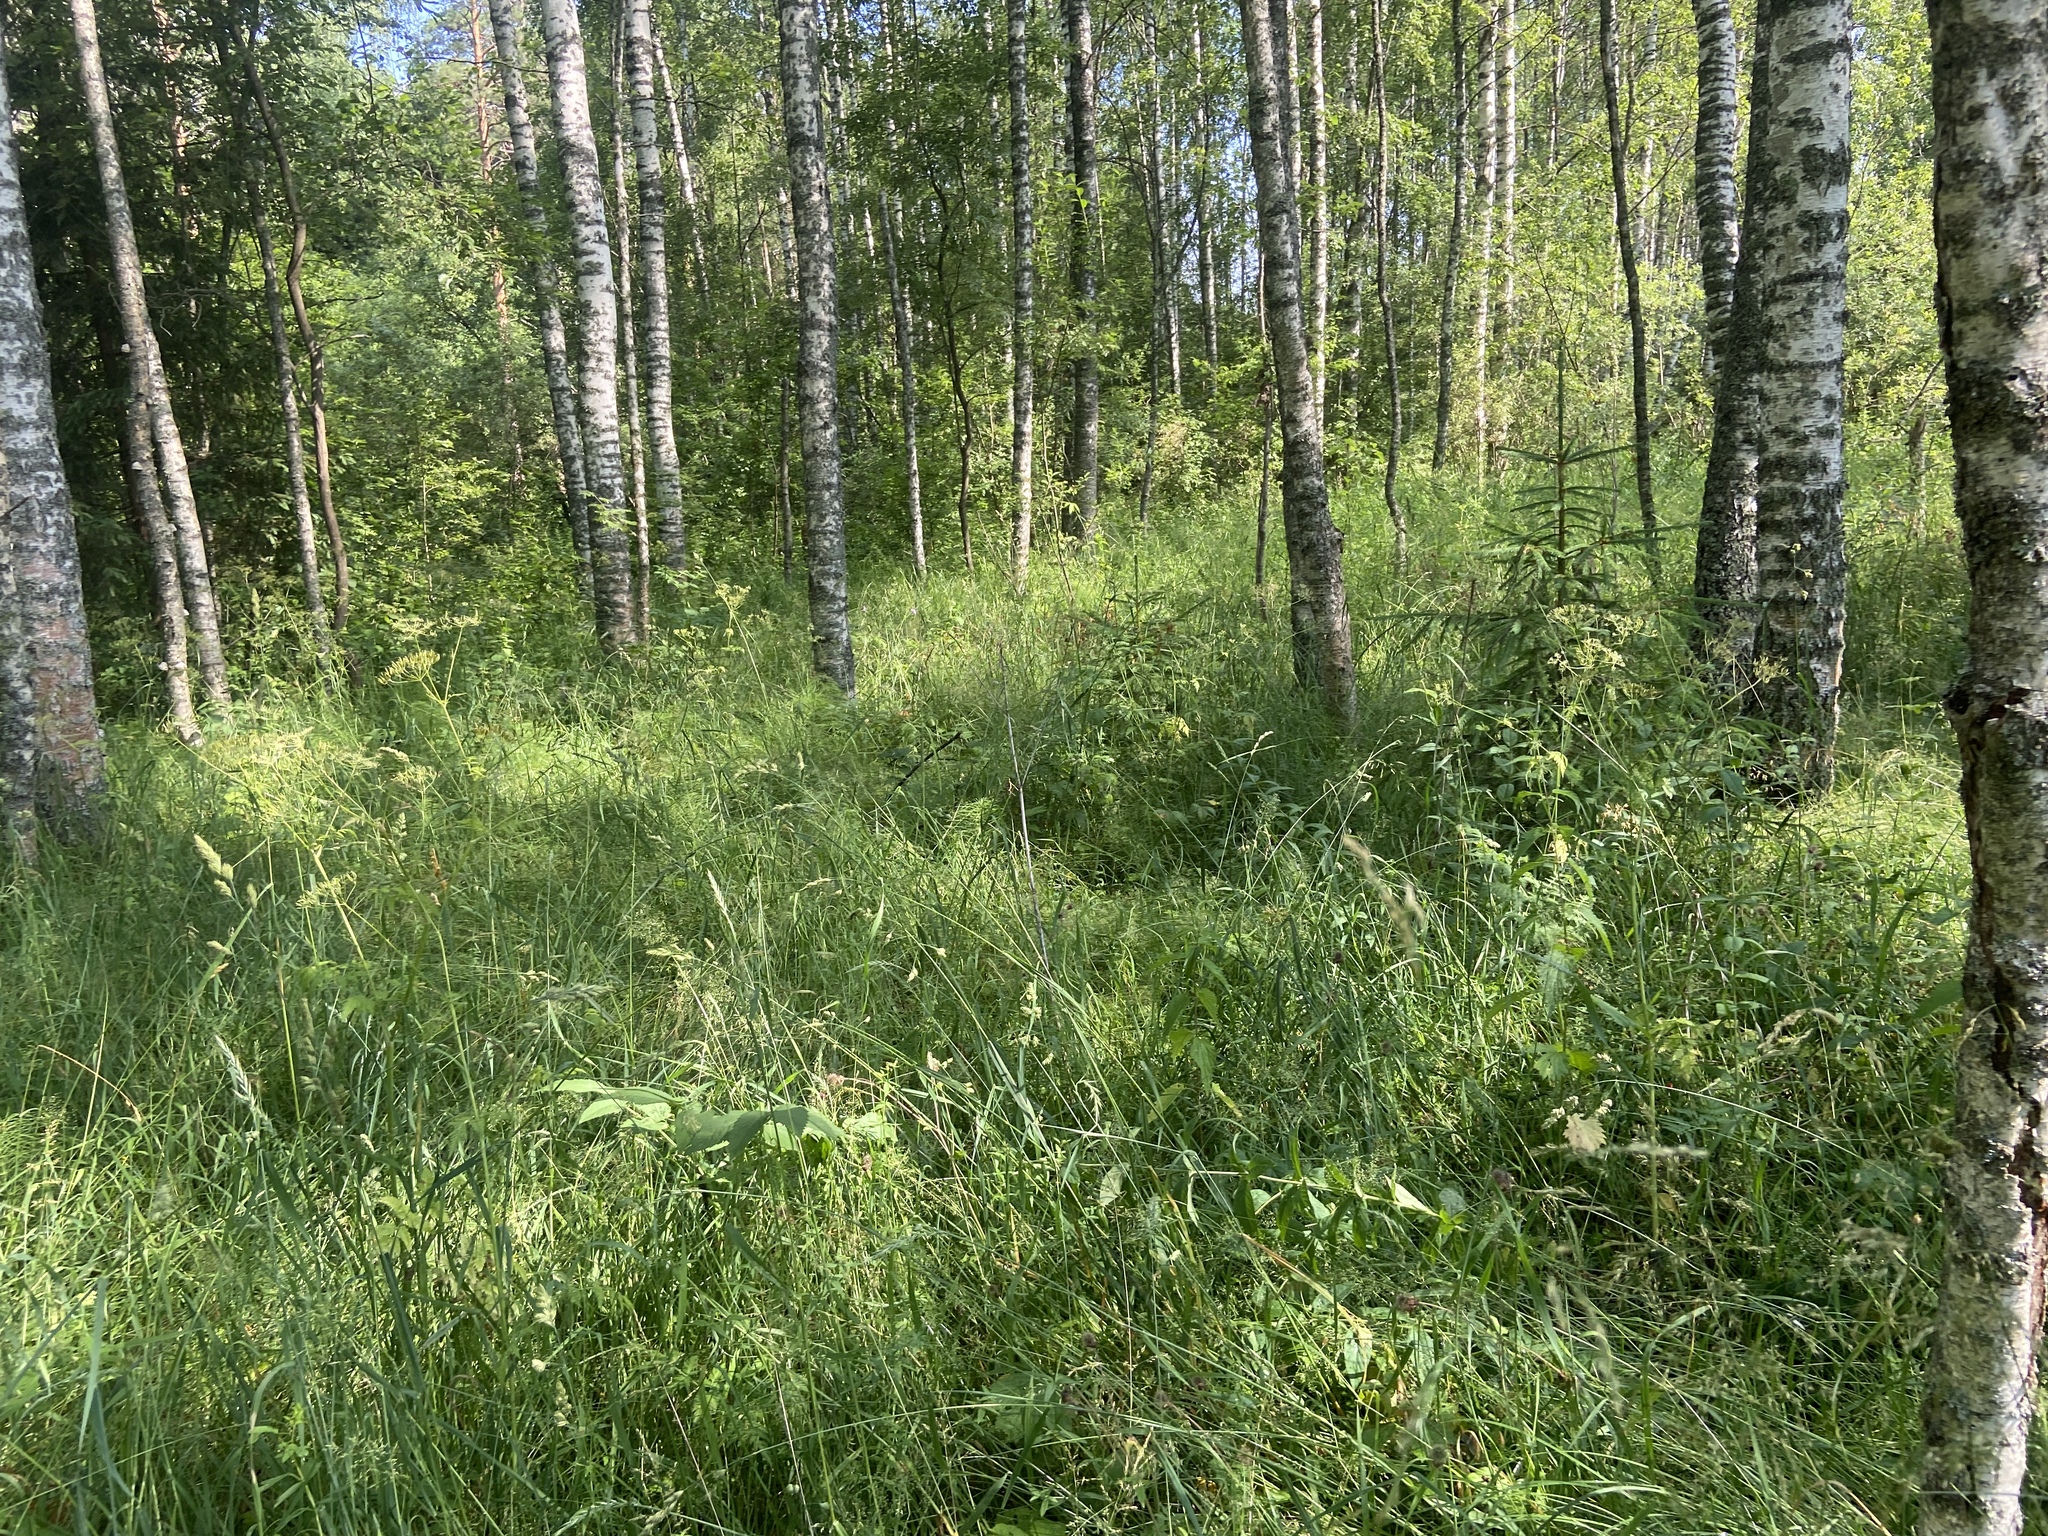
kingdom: Plantae
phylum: Tracheophyta
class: Pinopsida
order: Pinales
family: Pinaceae
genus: Picea
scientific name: Picea abies
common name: Norway spruce
